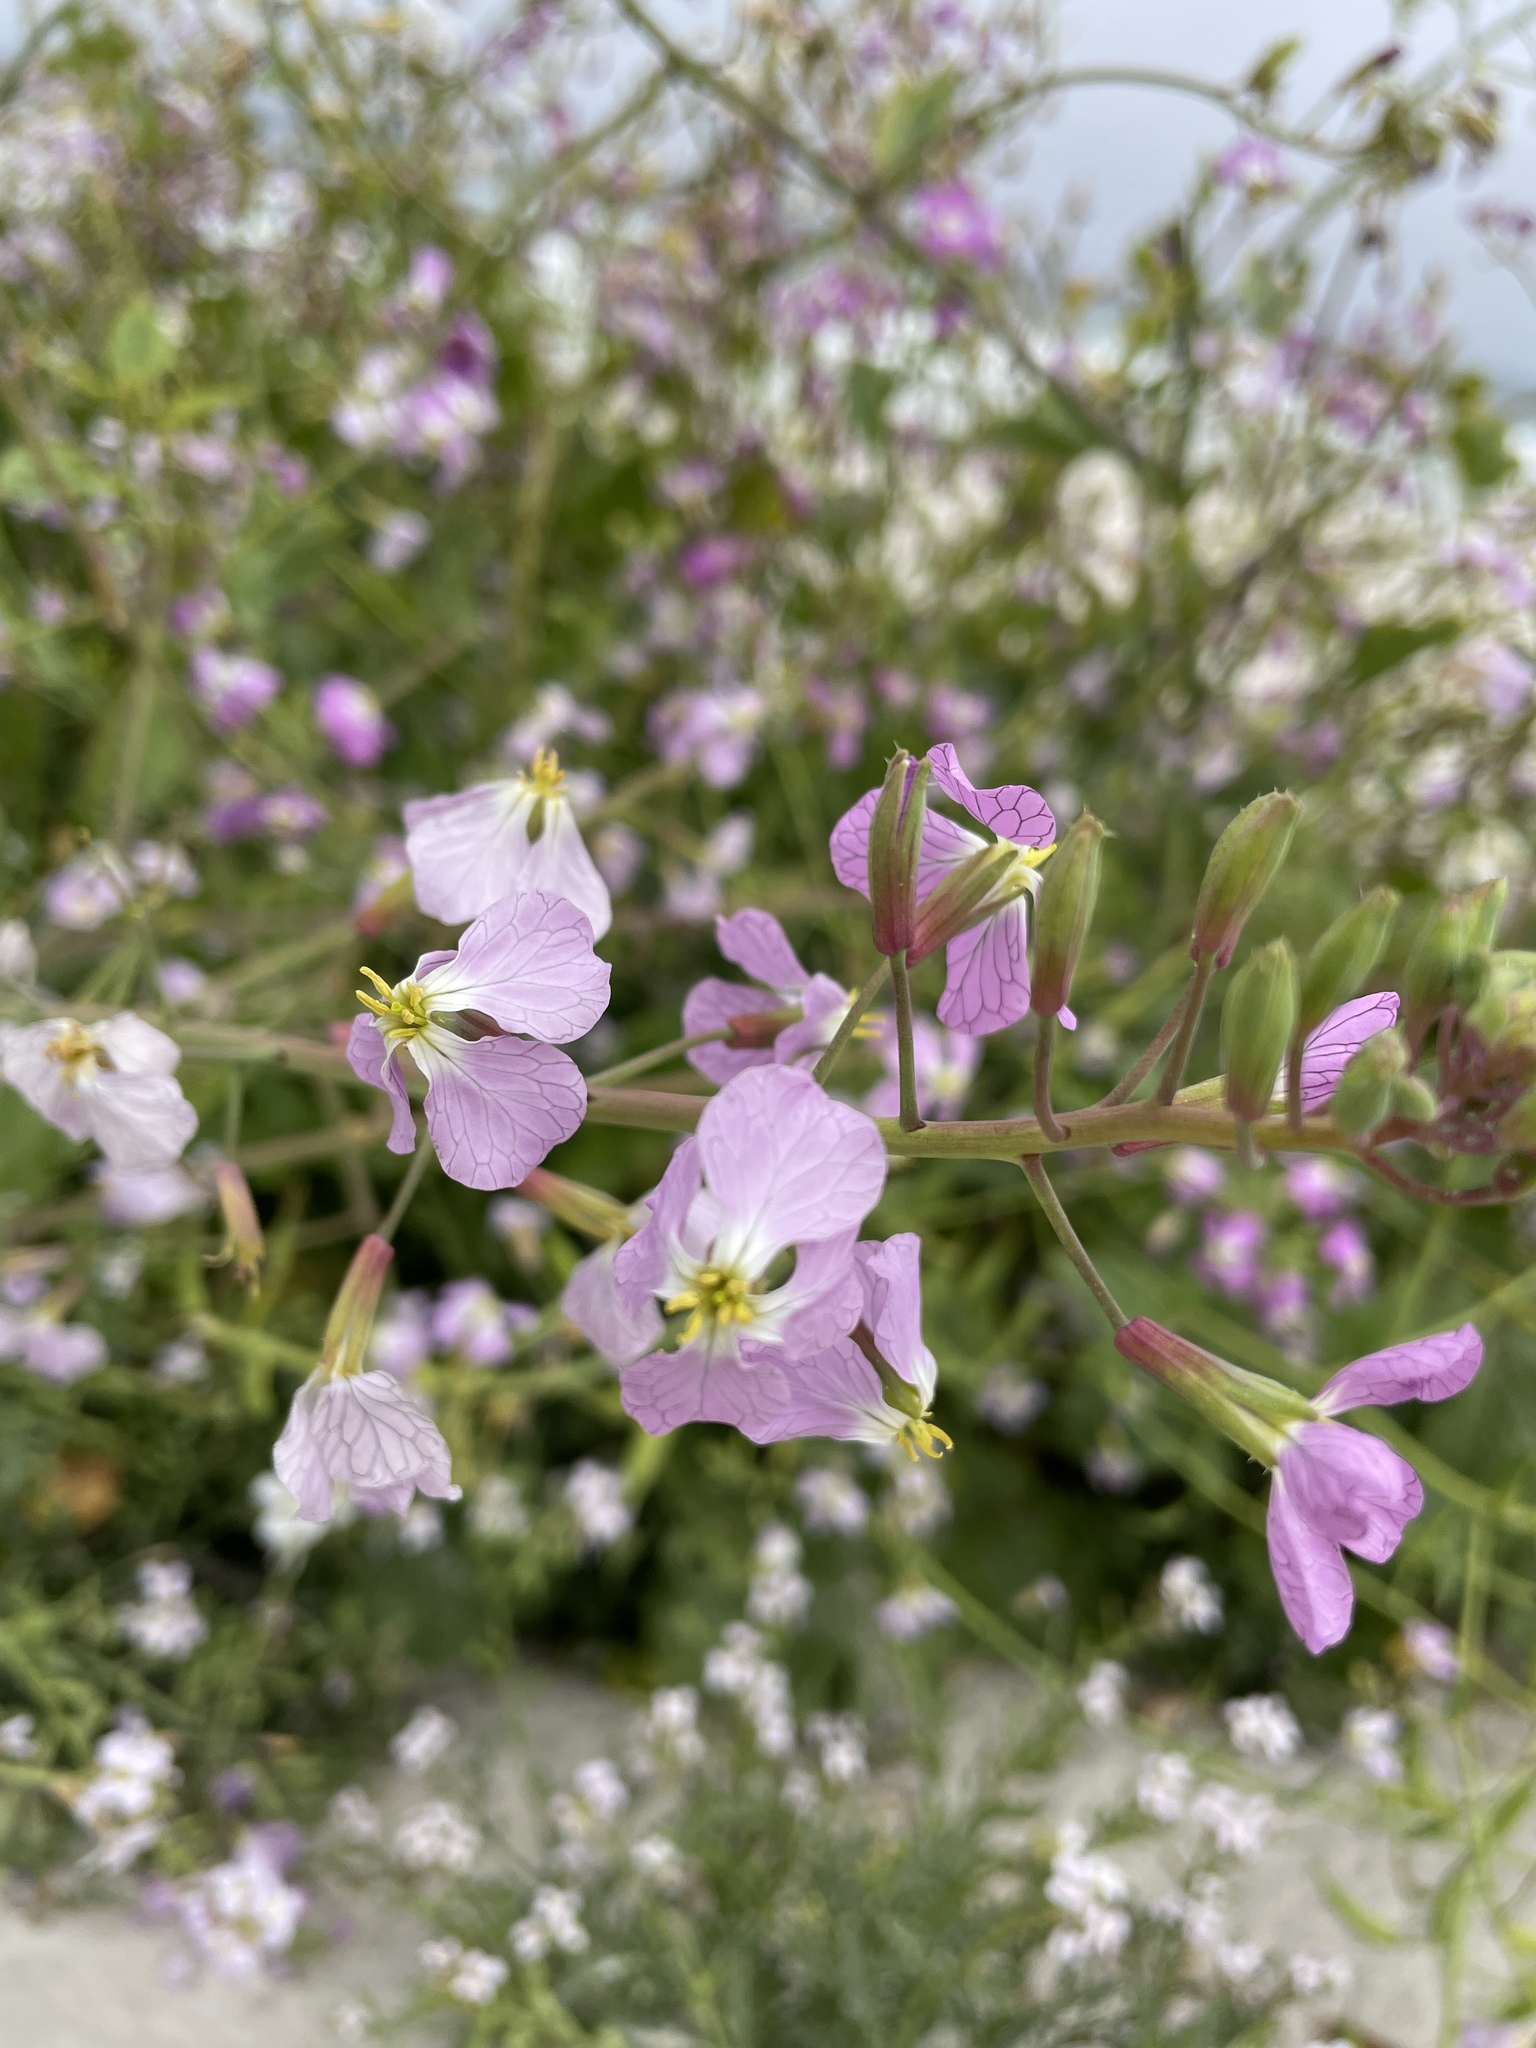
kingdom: Plantae
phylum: Tracheophyta
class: Magnoliopsida
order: Brassicales
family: Brassicaceae
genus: Raphanus
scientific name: Raphanus sativus
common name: Cultivated radish
